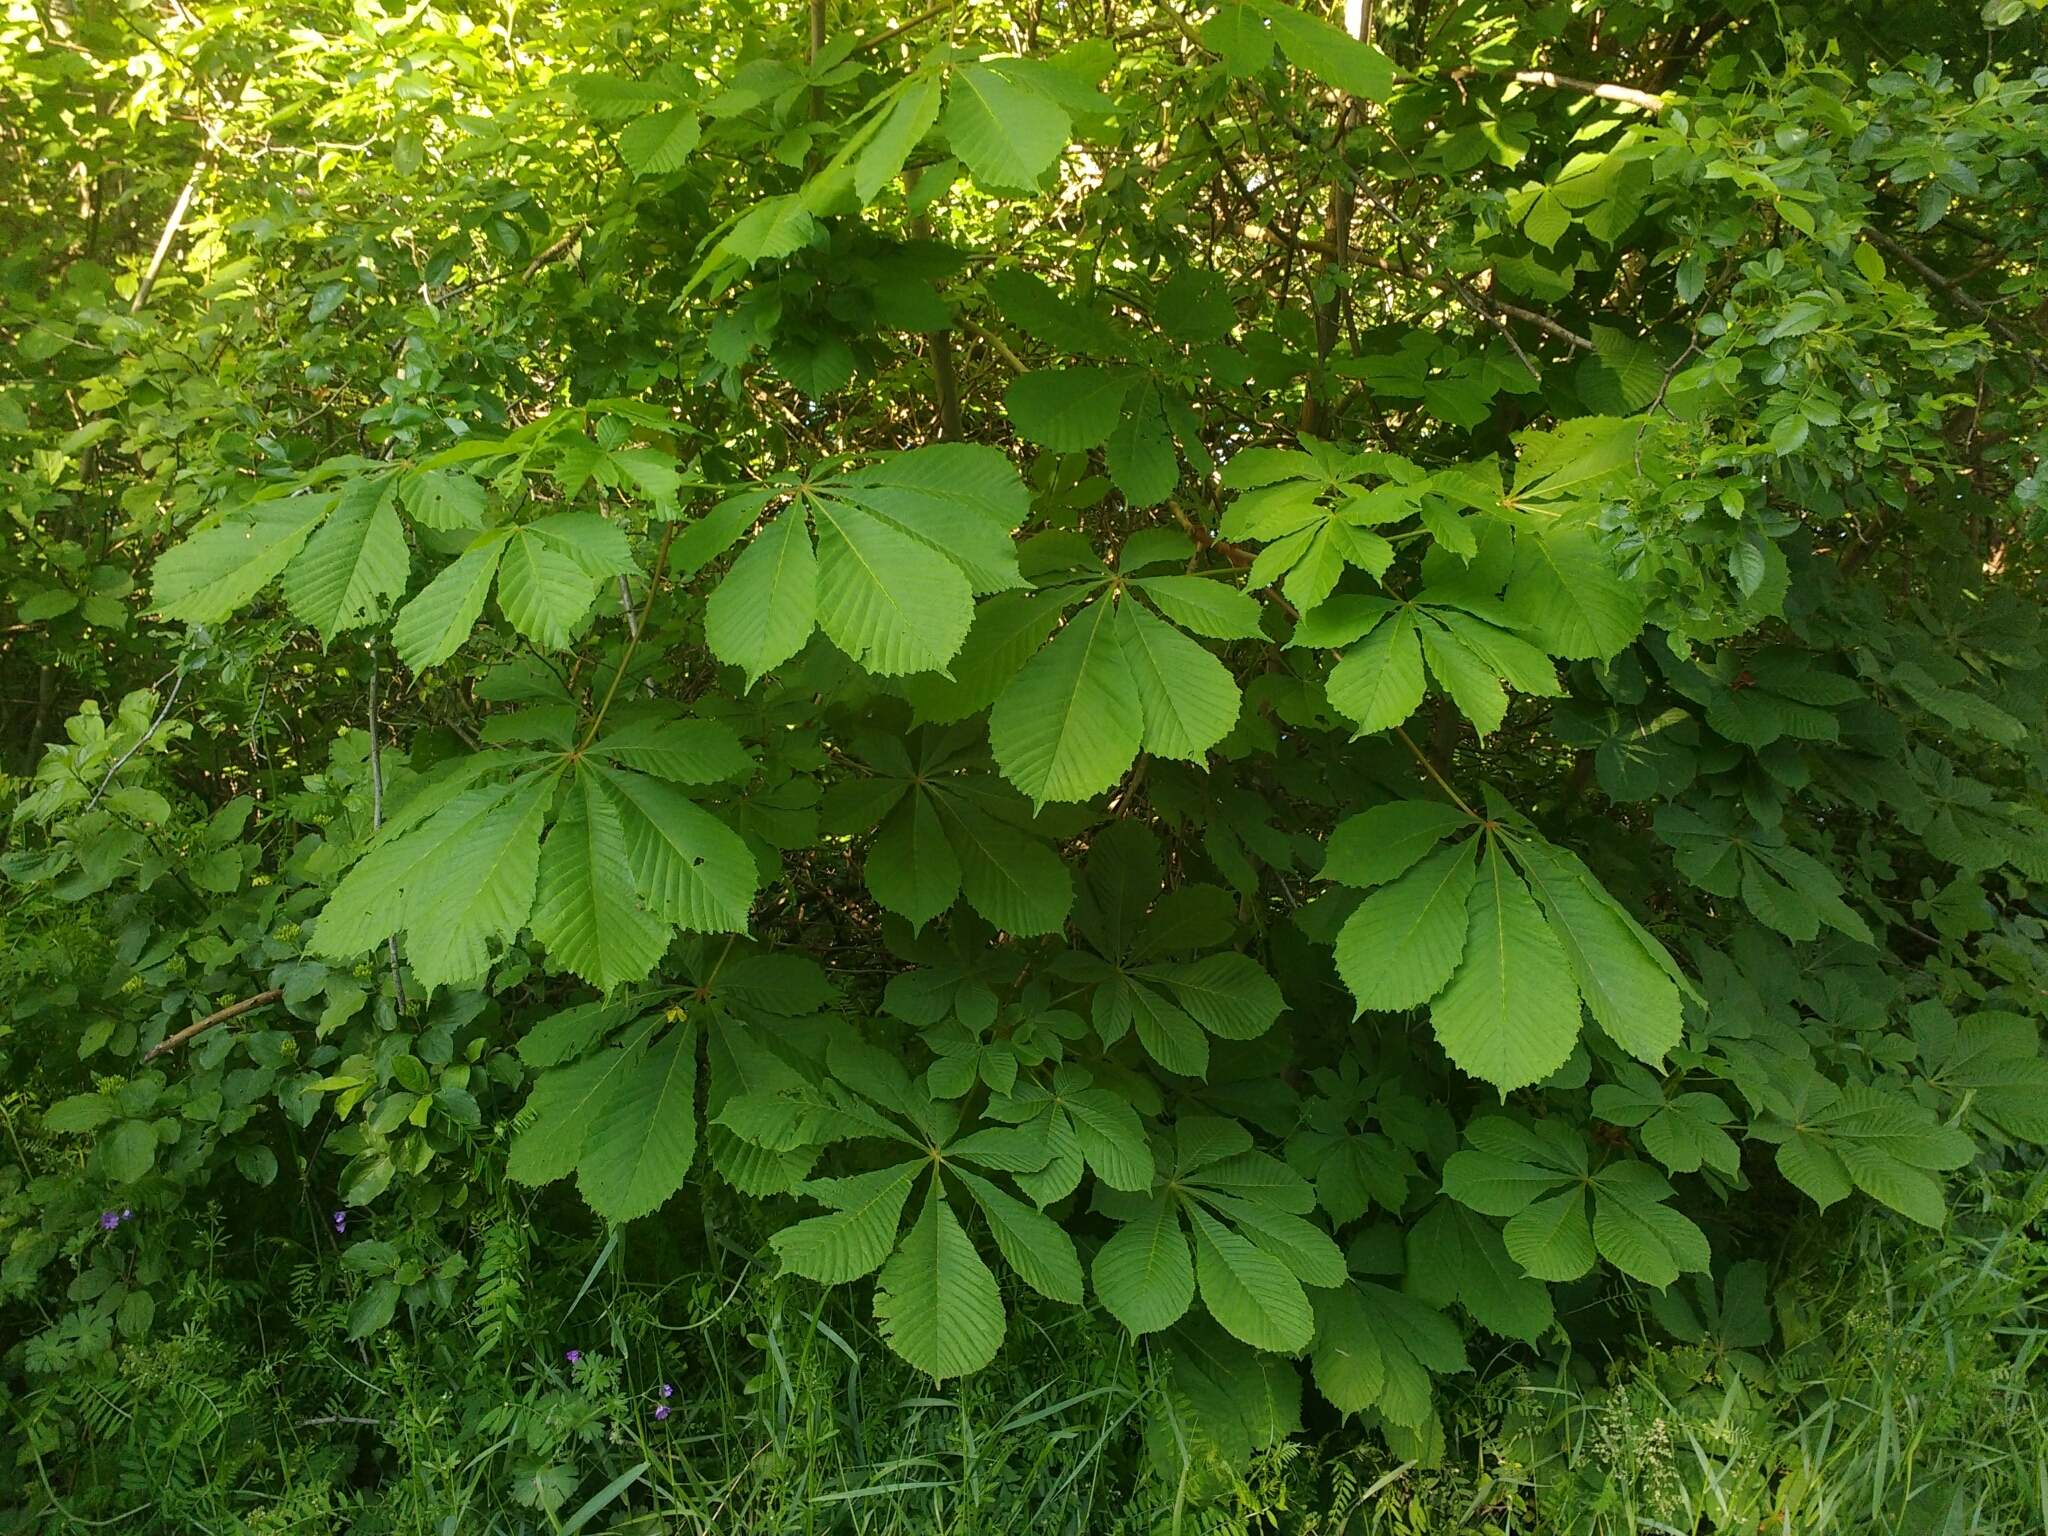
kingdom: Plantae
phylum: Tracheophyta
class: Magnoliopsida
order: Sapindales
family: Sapindaceae
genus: Aesculus
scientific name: Aesculus hippocastanum
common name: Horse-chestnut
